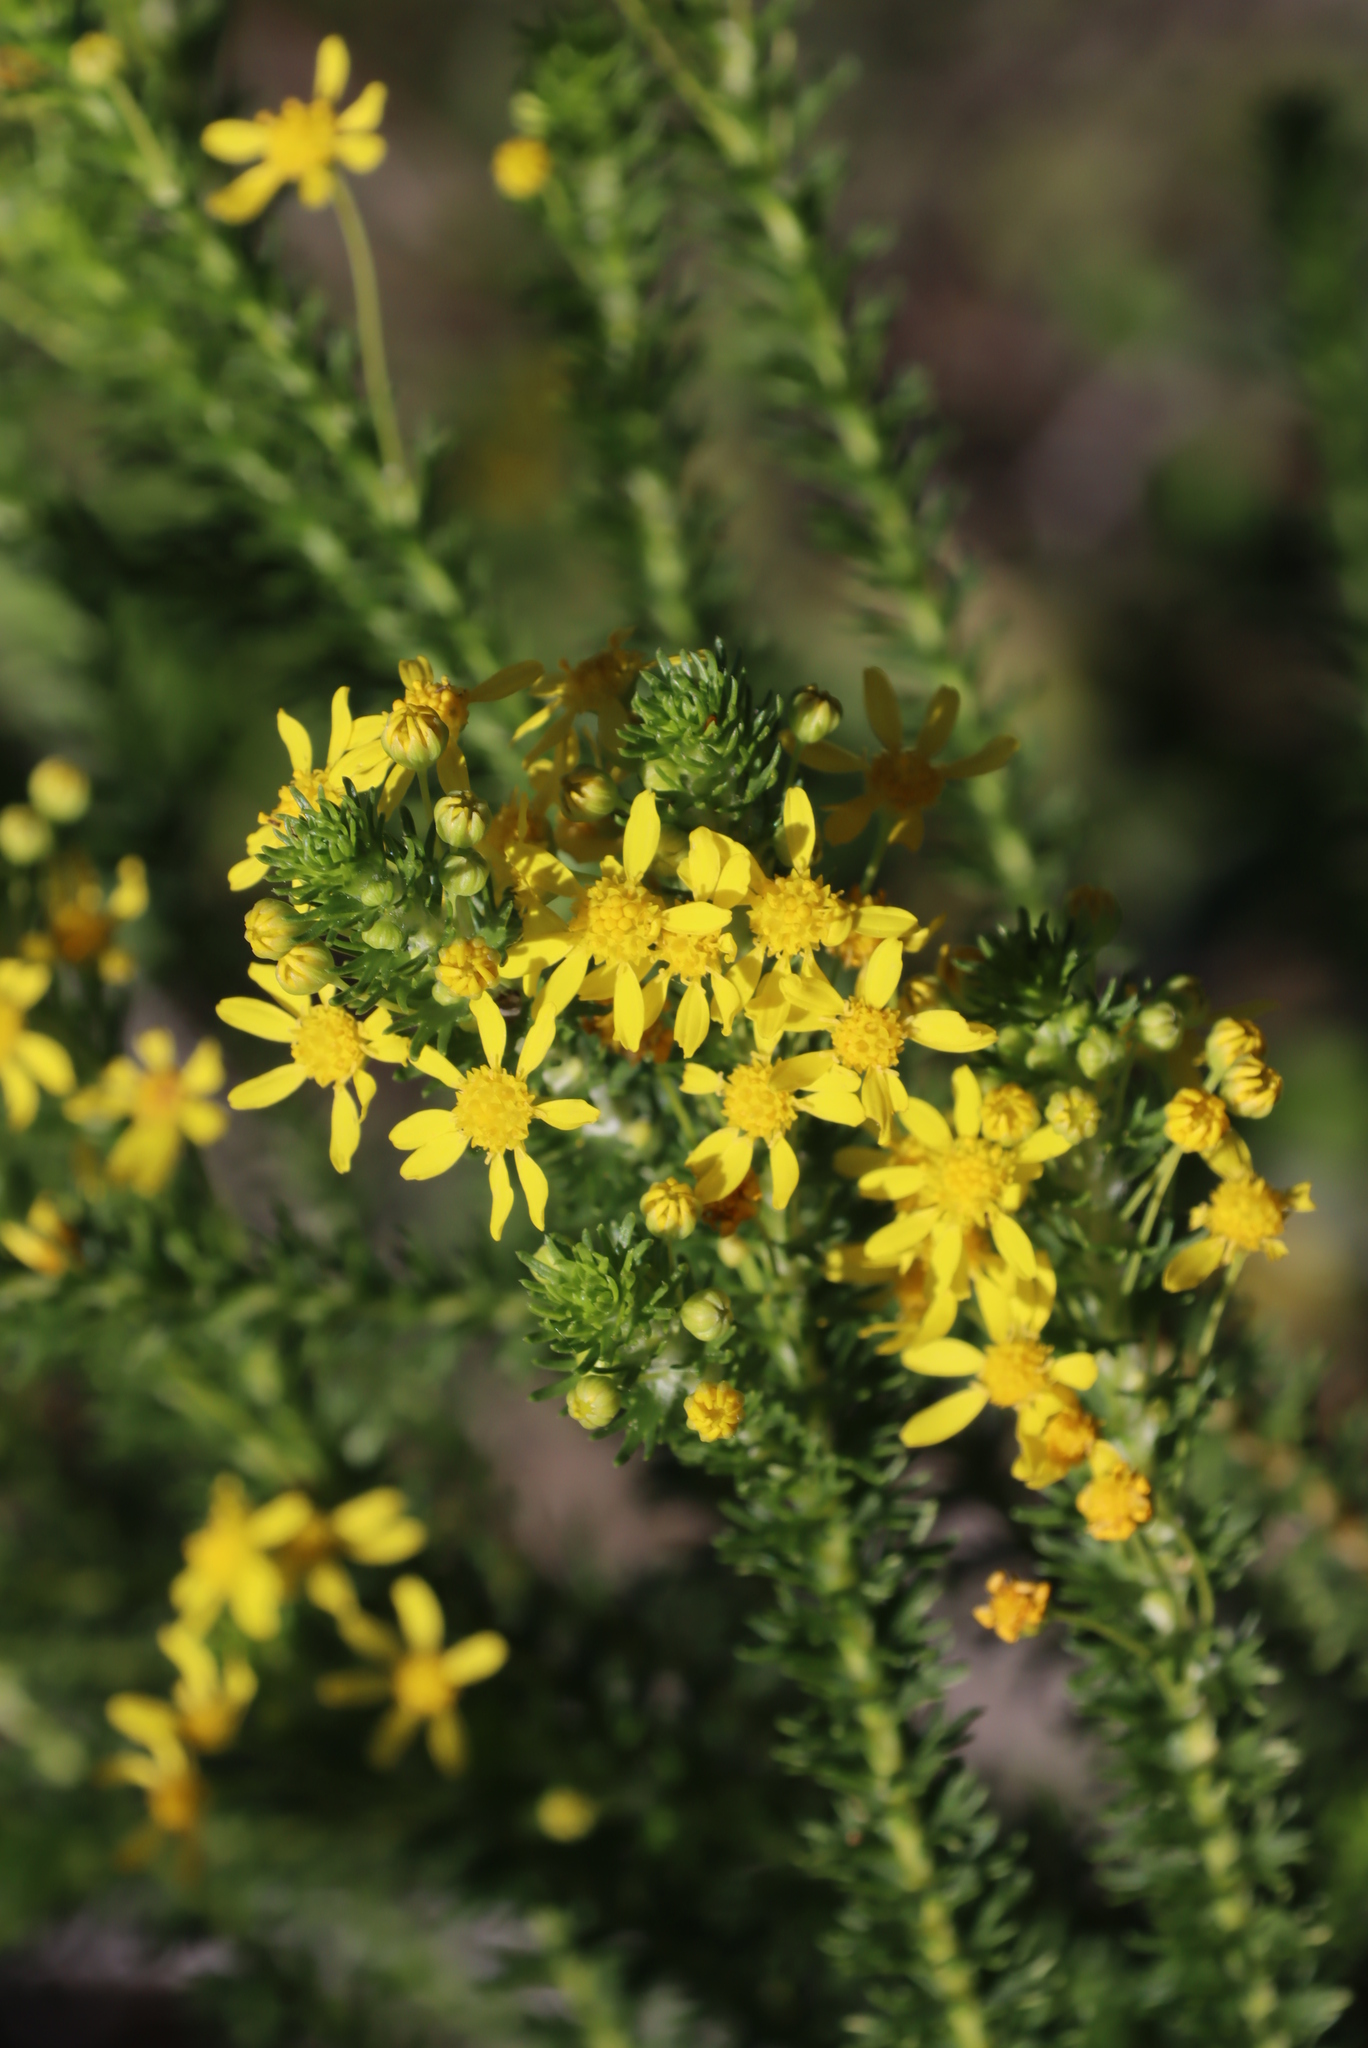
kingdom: Plantae
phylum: Tracheophyta
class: Magnoliopsida
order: Asterales
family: Asteraceae
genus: Euryops
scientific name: Euryops virgineus
